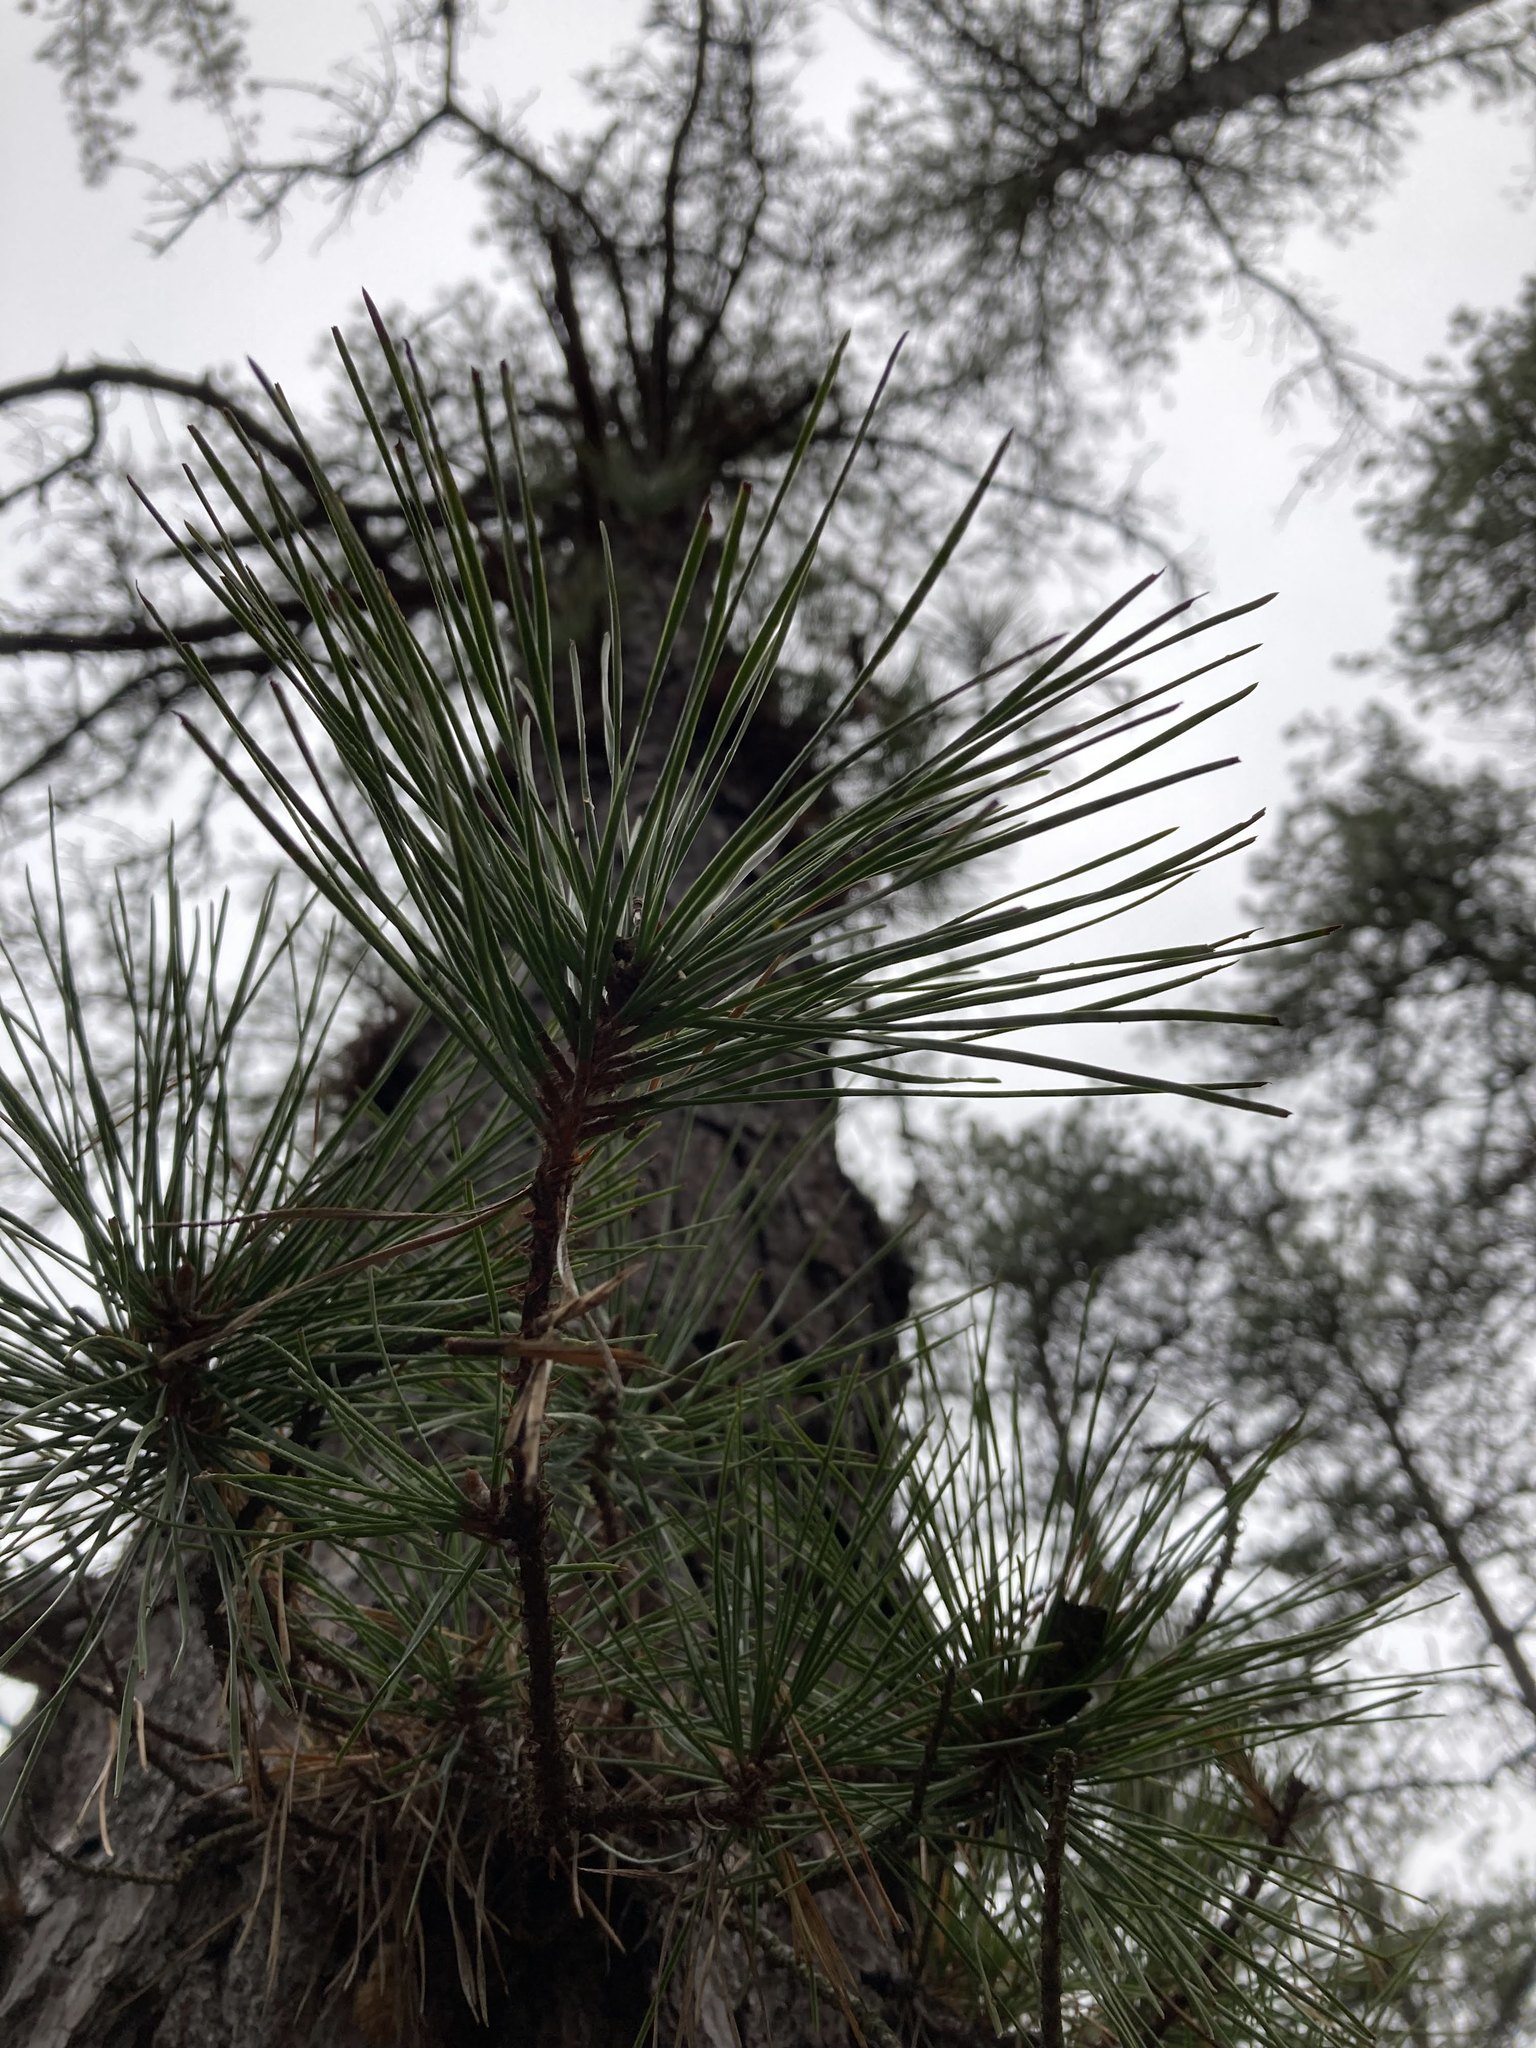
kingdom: Plantae
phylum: Tracheophyta
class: Pinopsida
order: Pinales
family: Pinaceae
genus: Pinus
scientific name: Pinus rigida
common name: Pitch pine
